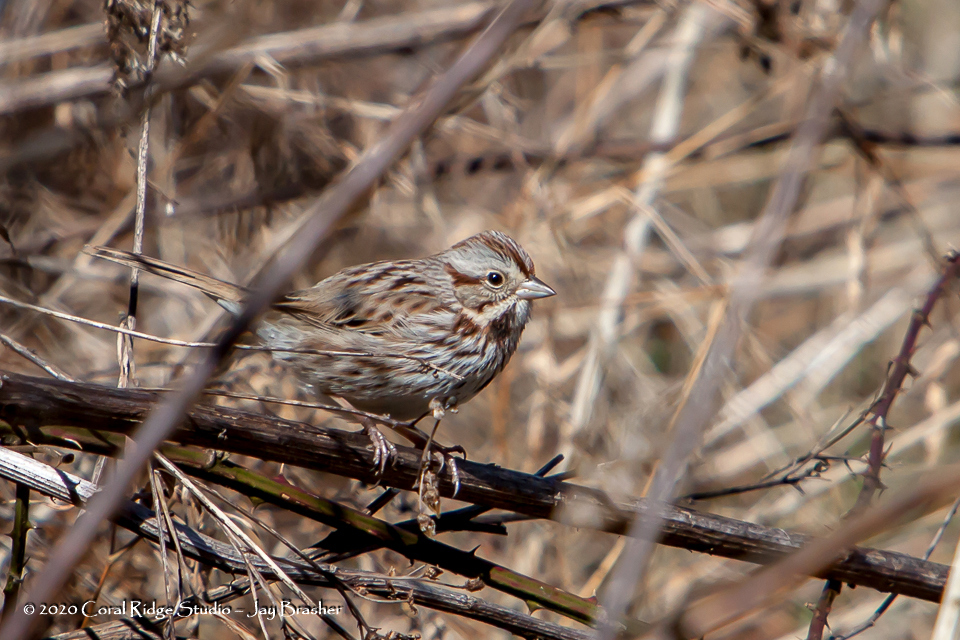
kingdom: Animalia
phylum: Chordata
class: Aves
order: Passeriformes
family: Passerellidae
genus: Melospiza
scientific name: Melospiza melodia
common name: Song sparrow
